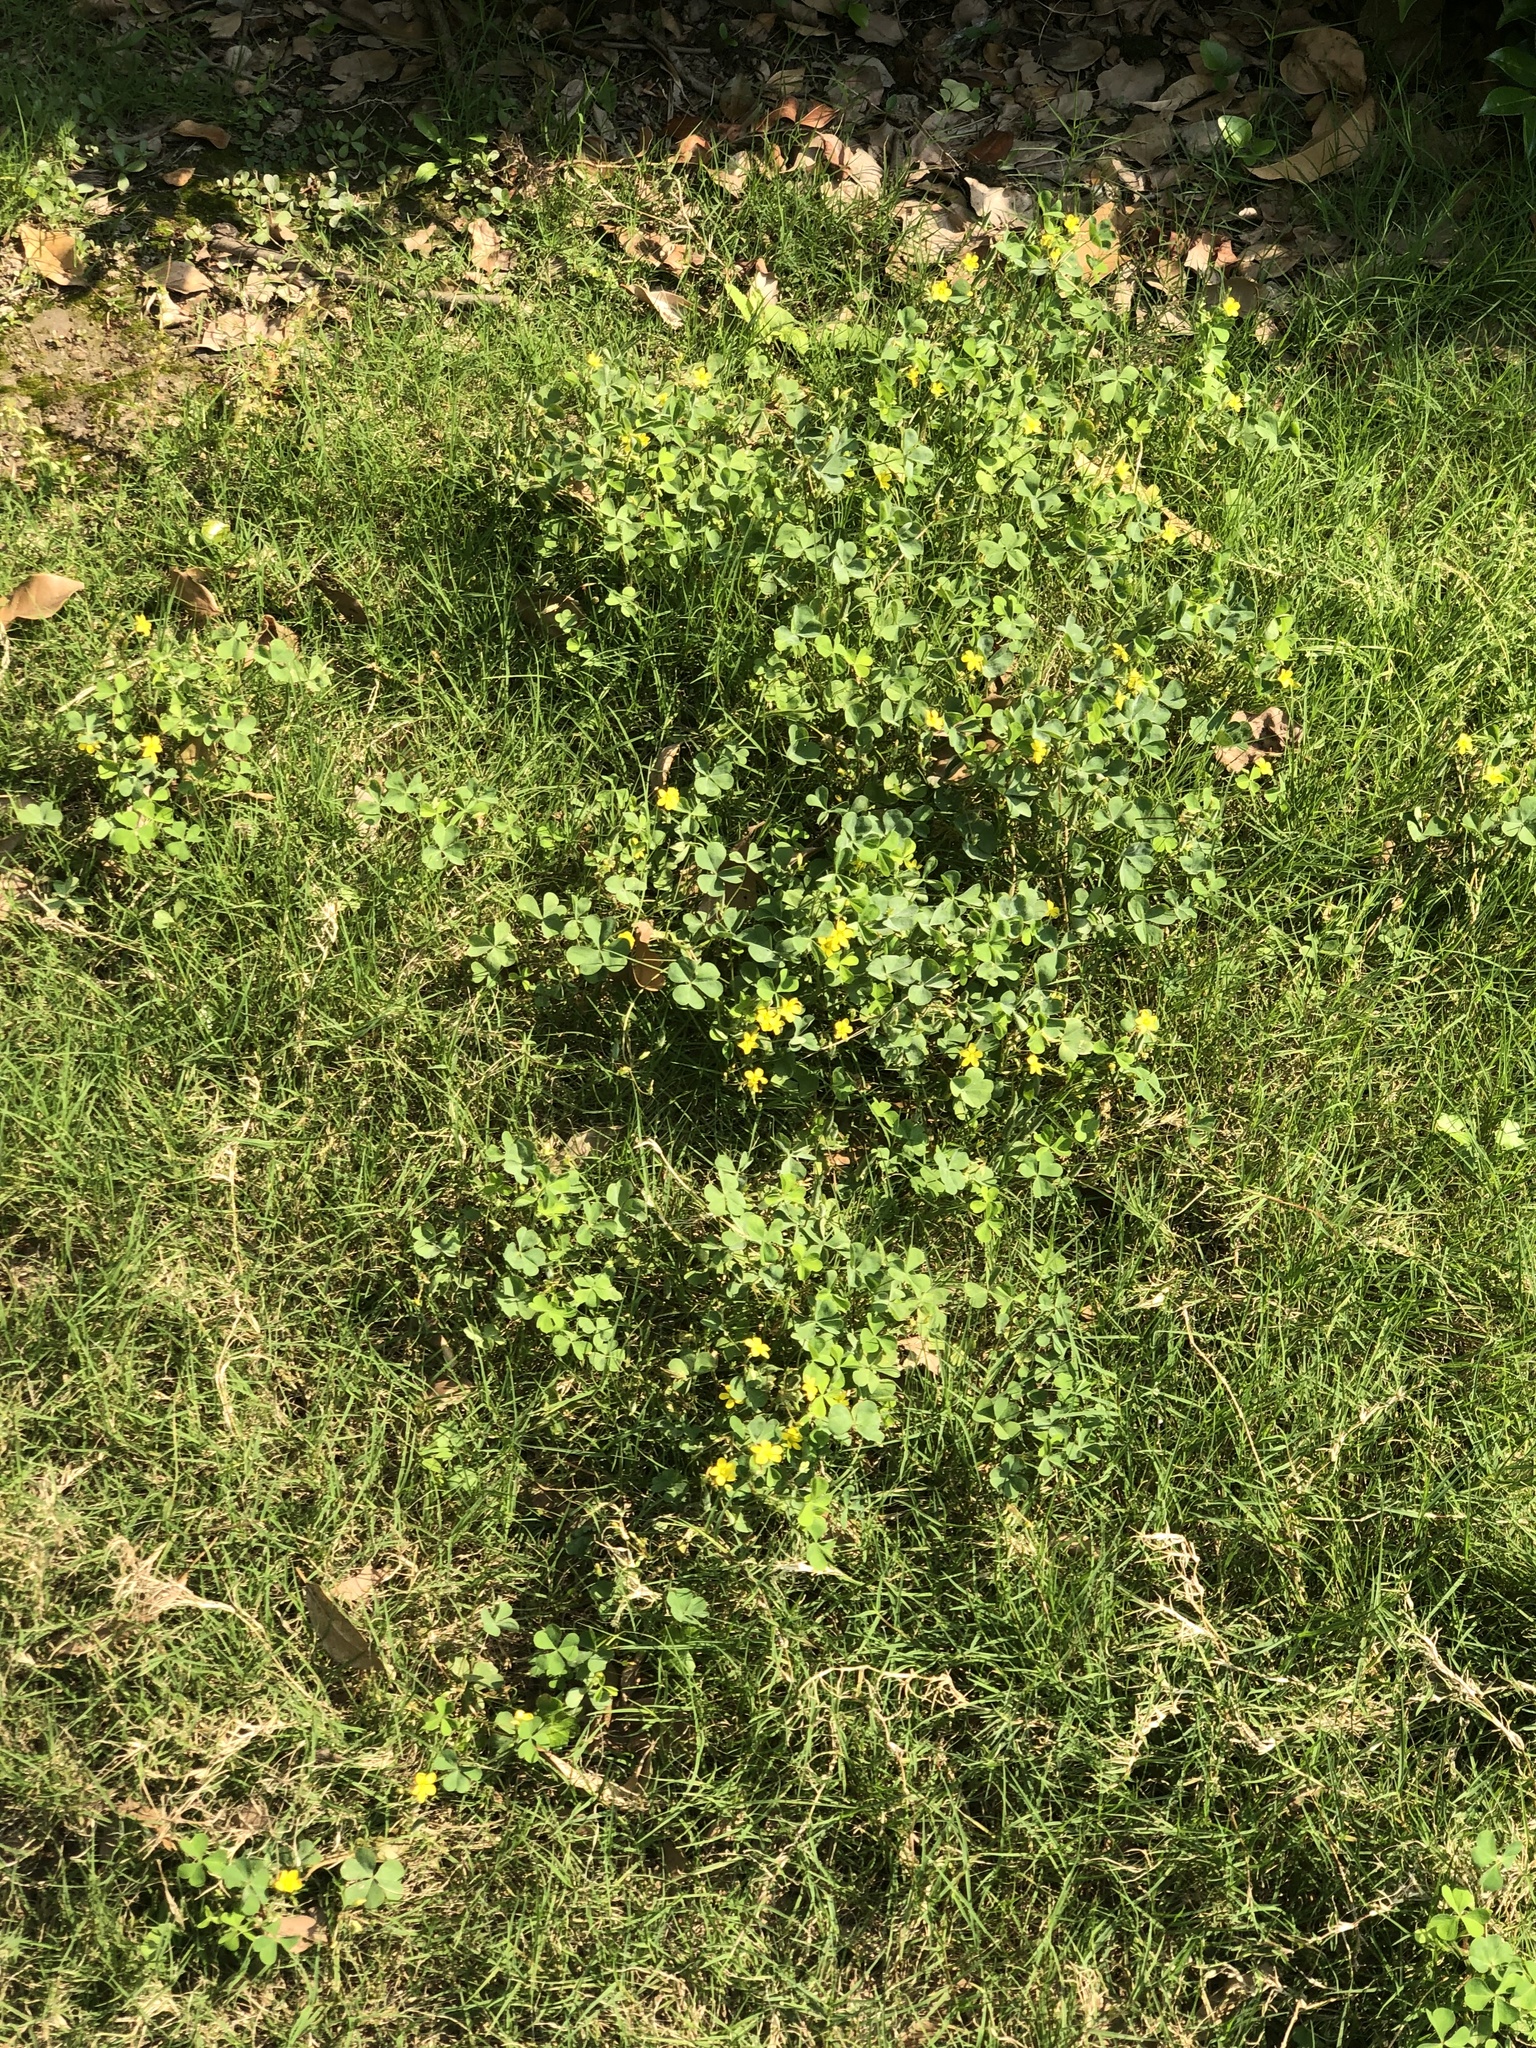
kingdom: Plantae
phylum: Tracheophyta
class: Magnoliopsida
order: Fabales
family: Fabaceae
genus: Medicago
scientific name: Medicago polymorpha
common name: Burclover
